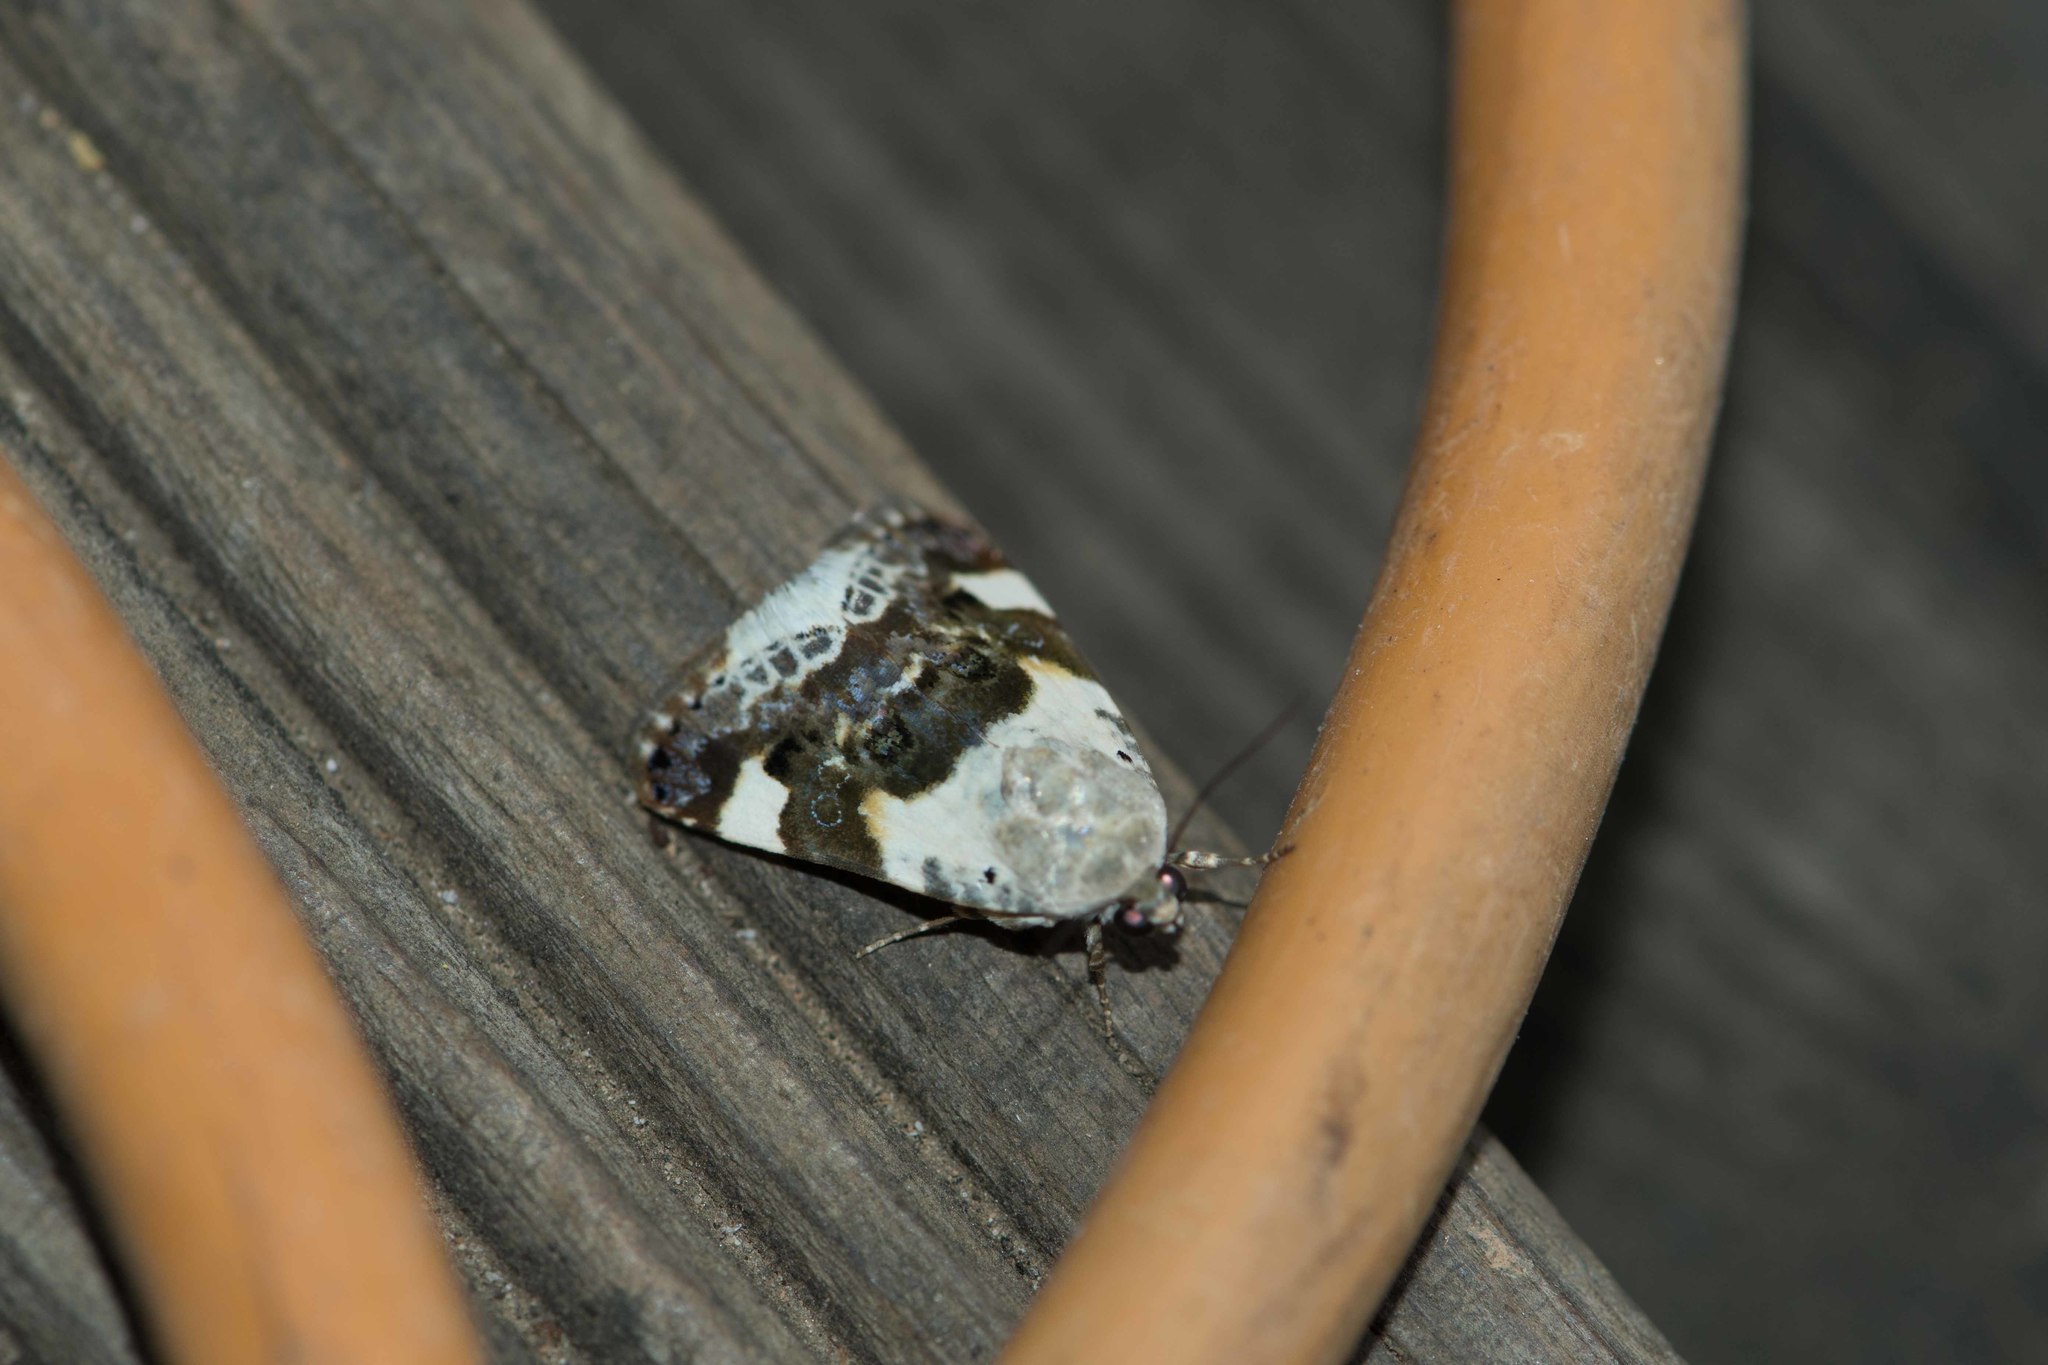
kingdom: Animalia
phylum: Arthropoda
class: Insecta
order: Lepidoptera
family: Noctuidae
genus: Acontia
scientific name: Acontia lucida
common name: Pale shoulder
